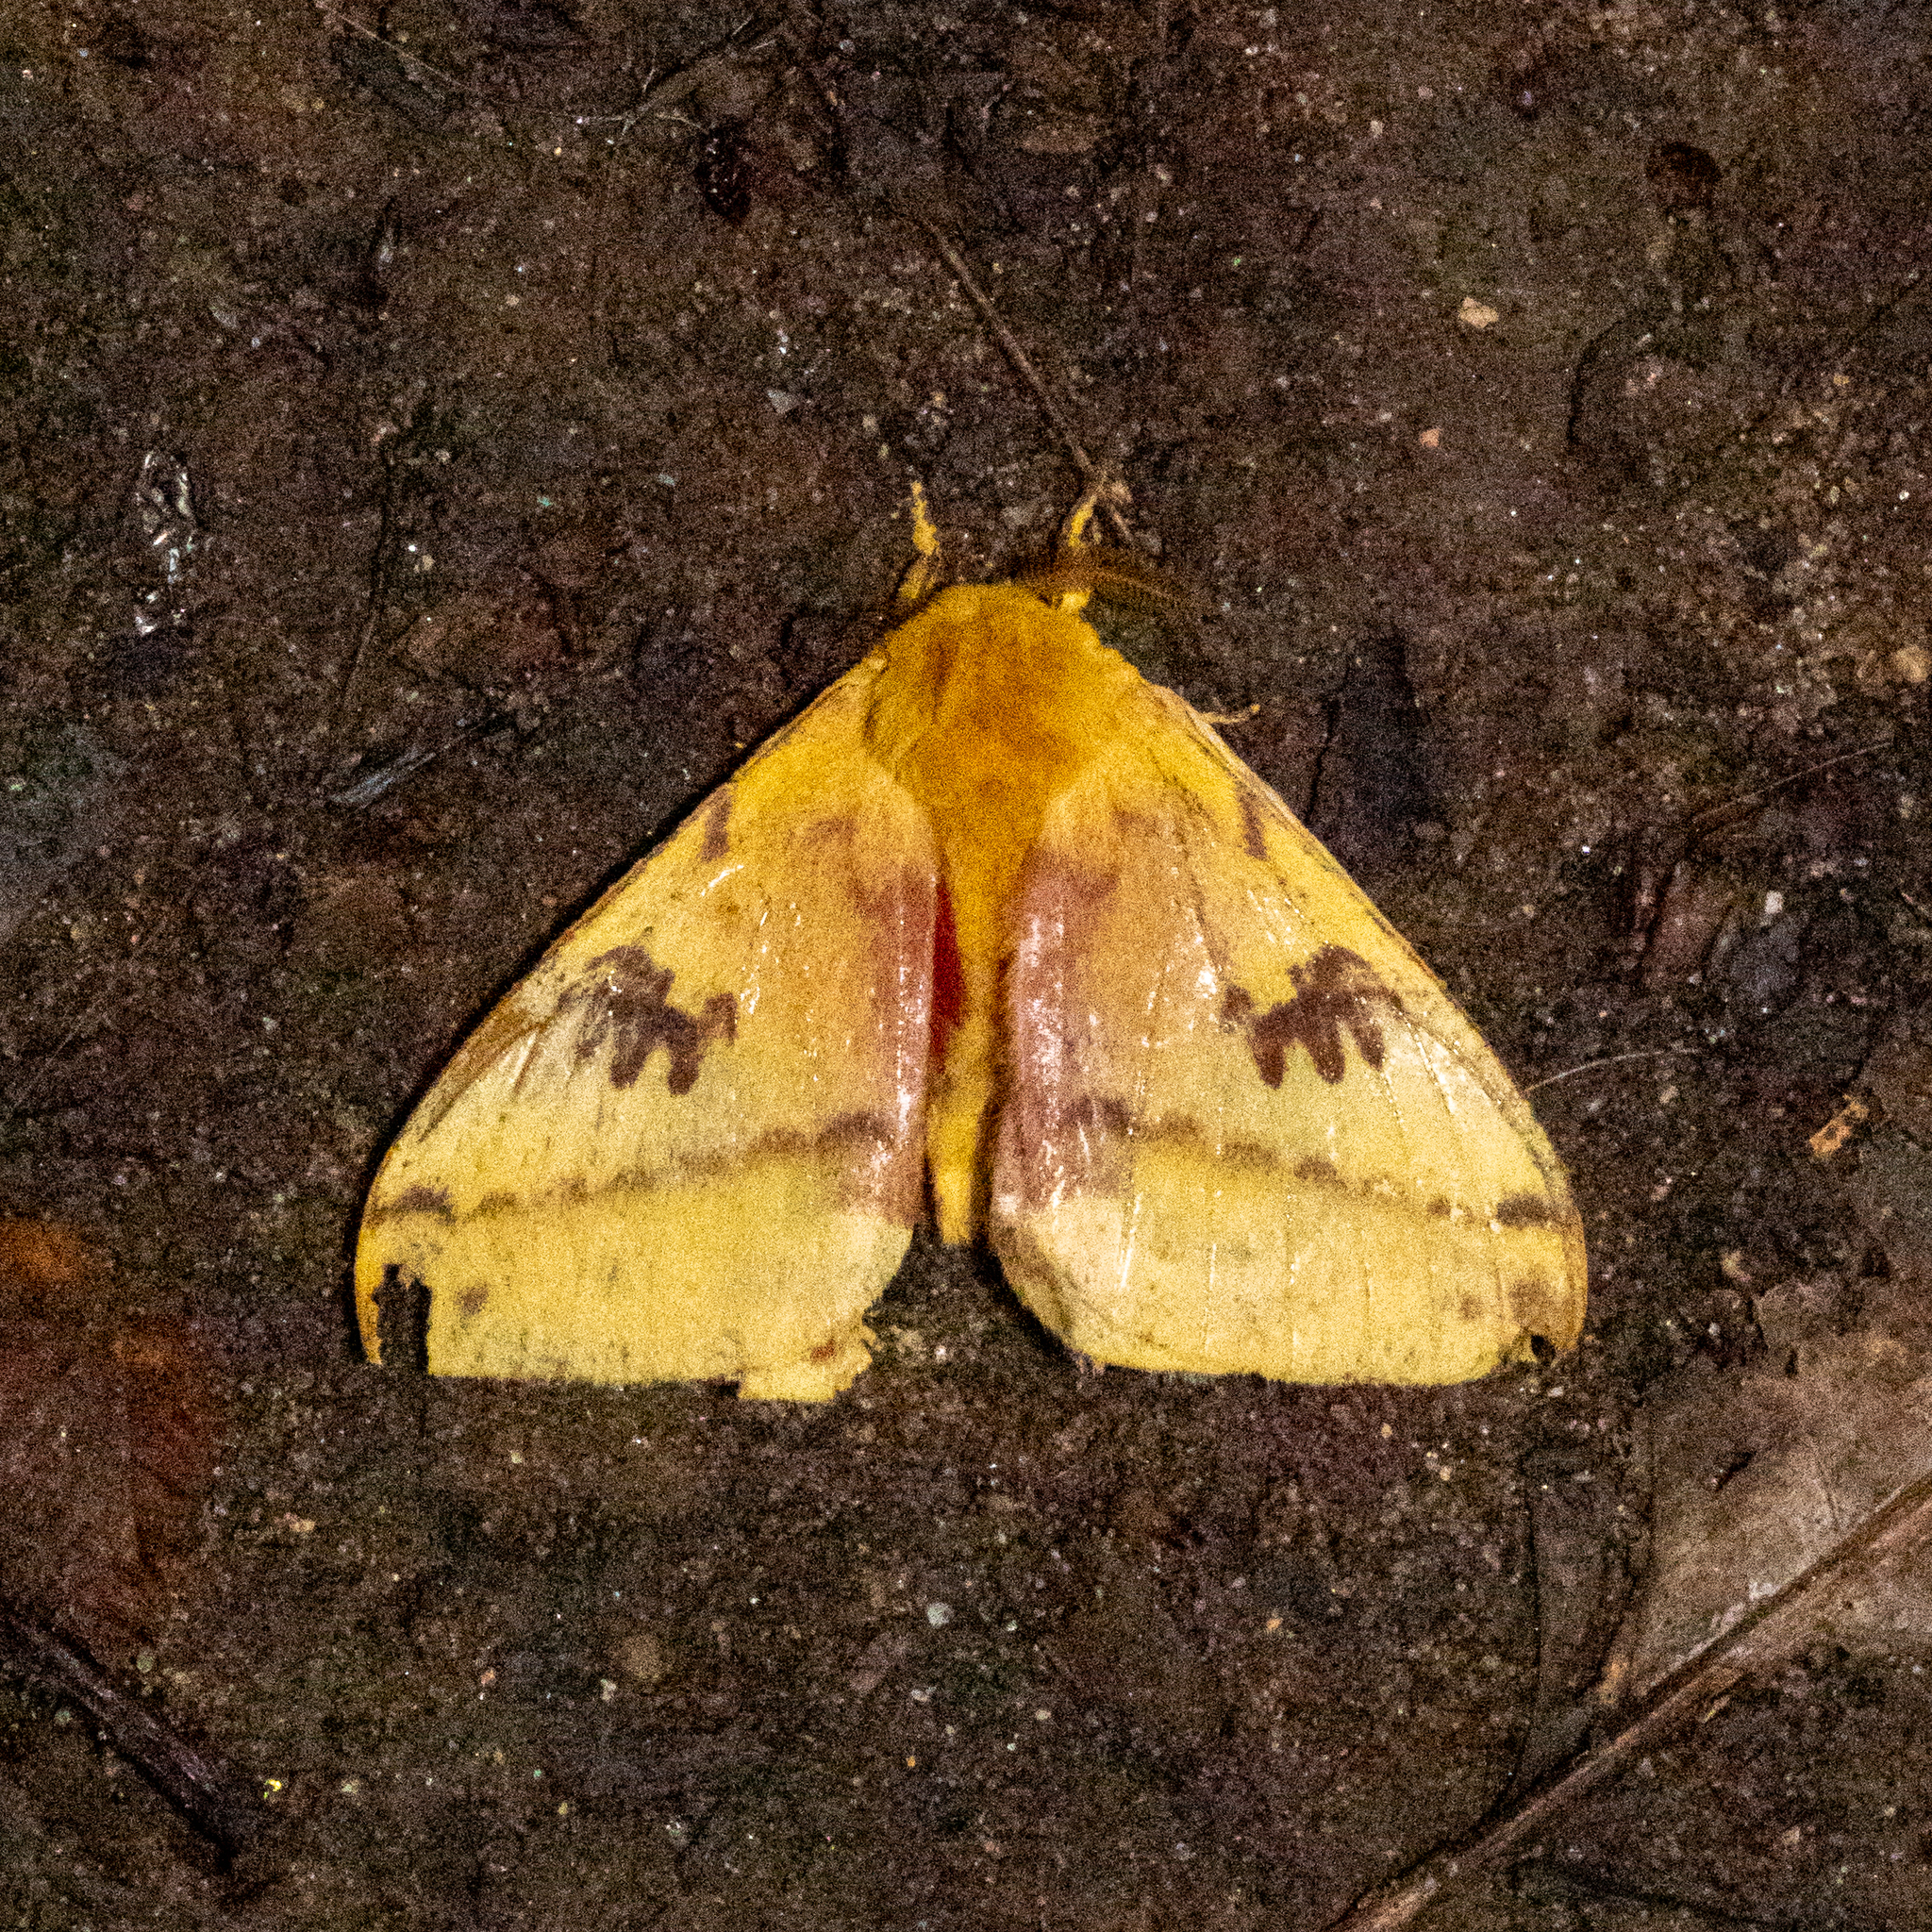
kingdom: Animalia
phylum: Arthropoda
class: Insecta
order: Lepidoptera
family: Saturniidae
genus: Automeris
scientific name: Automeris io
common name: Io moth
